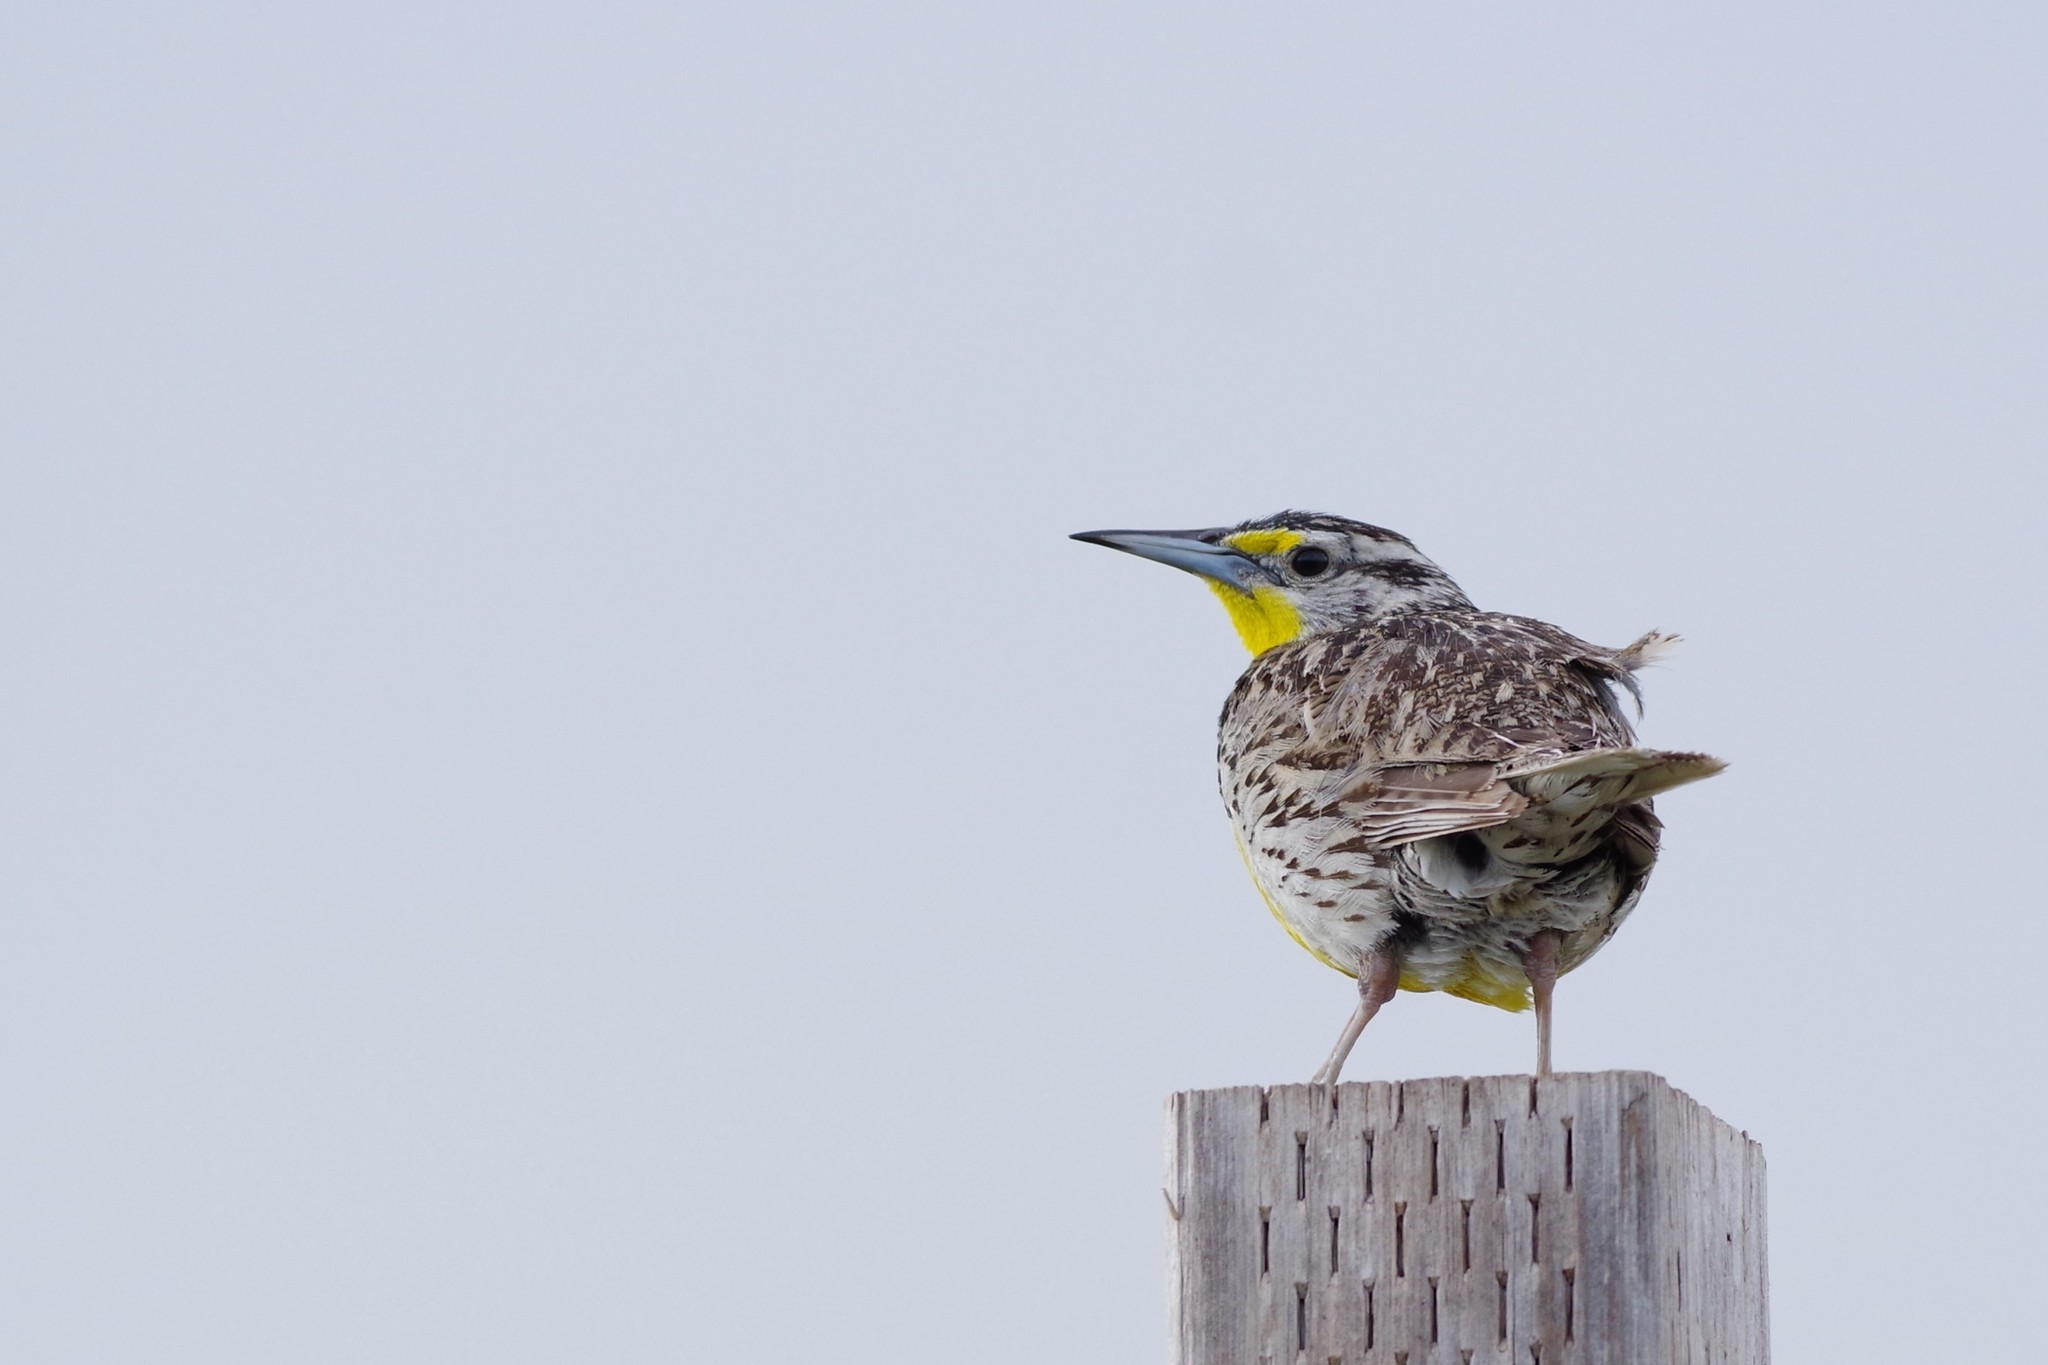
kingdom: Animalia
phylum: Chordata
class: Aves
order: Passeriformes
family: Icteridae
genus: Sturnella
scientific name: Sturnella neglecta
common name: Western meadowlark
